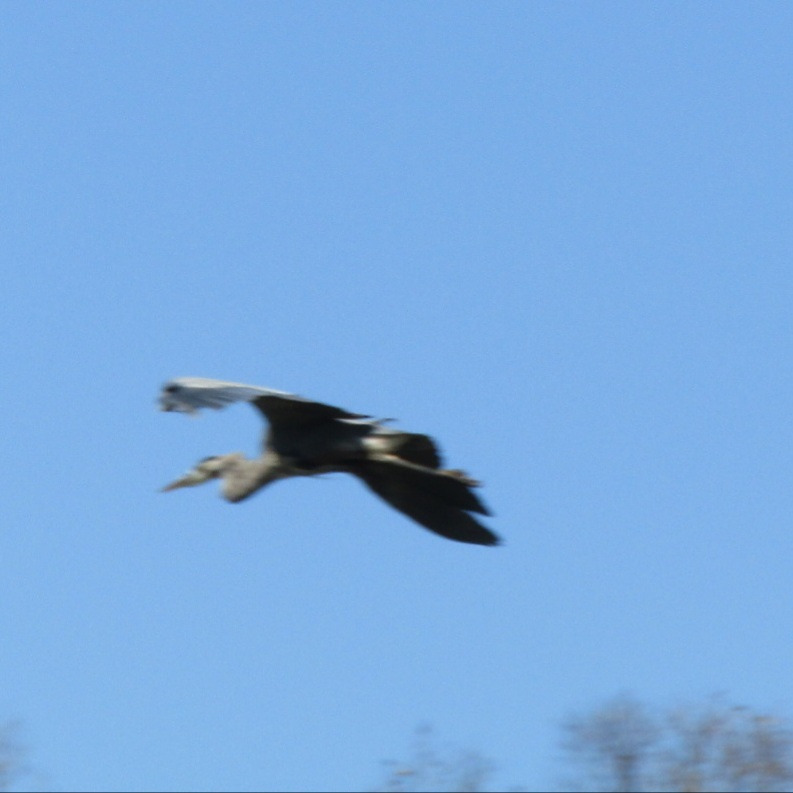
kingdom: Animalia
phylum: Chordata
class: Aves
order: Pelecaniformes
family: Ardeidae
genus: Ardea
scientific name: Ardea herodias
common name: Great blue heron
